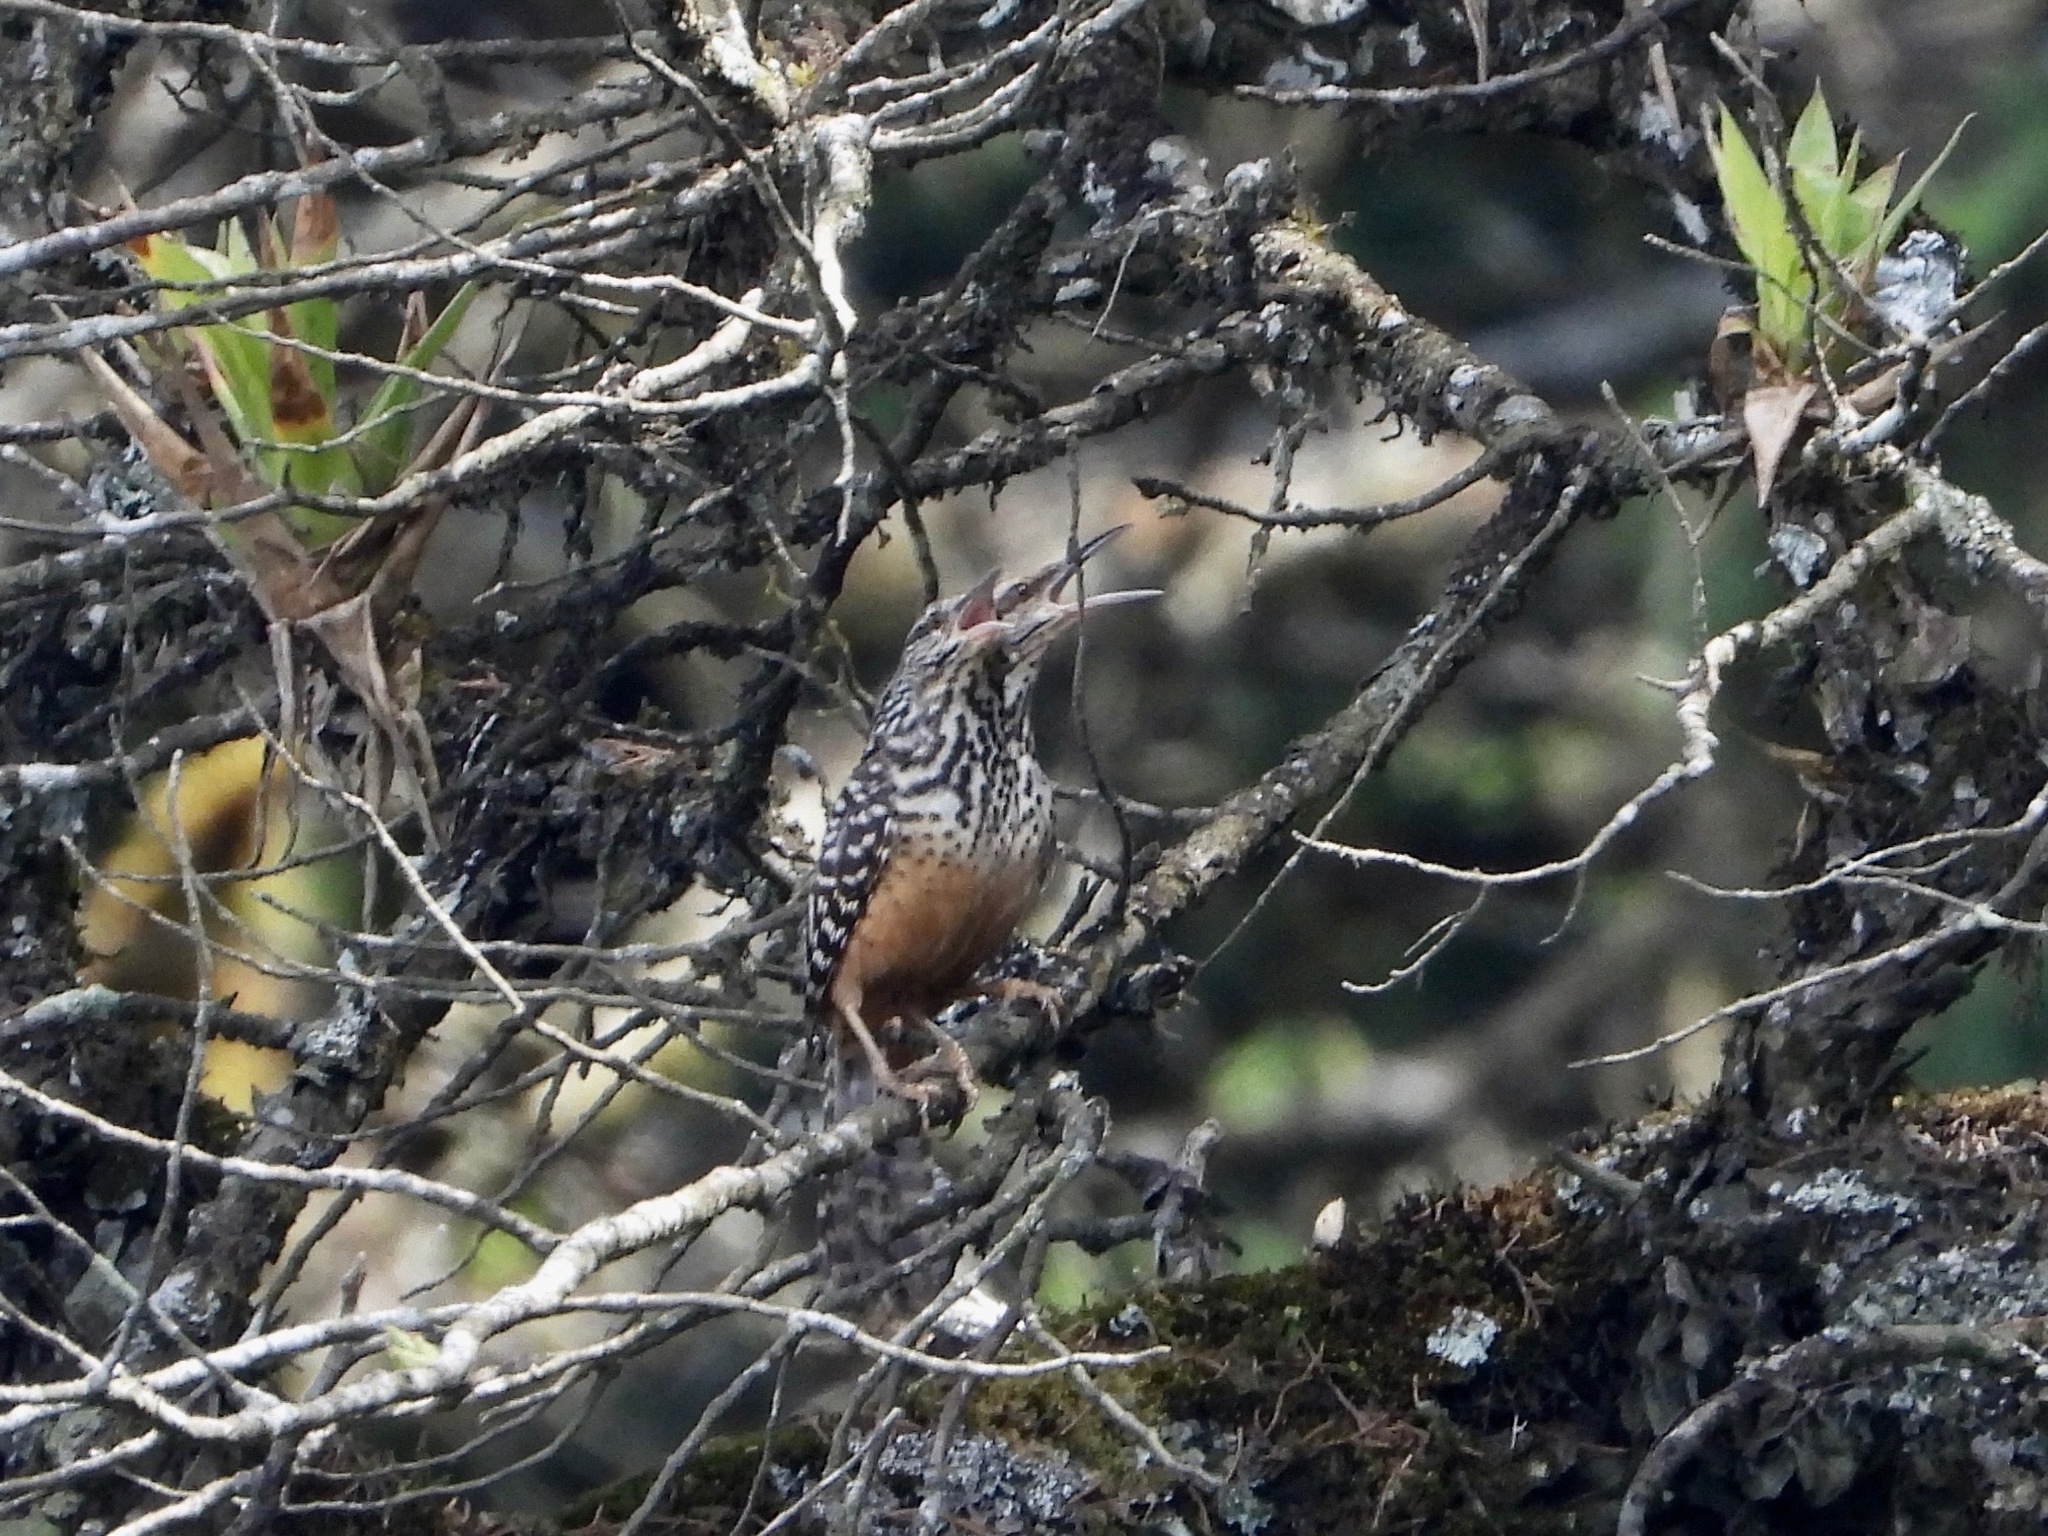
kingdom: Animalia
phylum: Chordata
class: Aves
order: Passeriformes
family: Troglodytidae
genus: Campylorhynchus
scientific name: Campylorhynchus zonatus
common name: Band-backed wren
